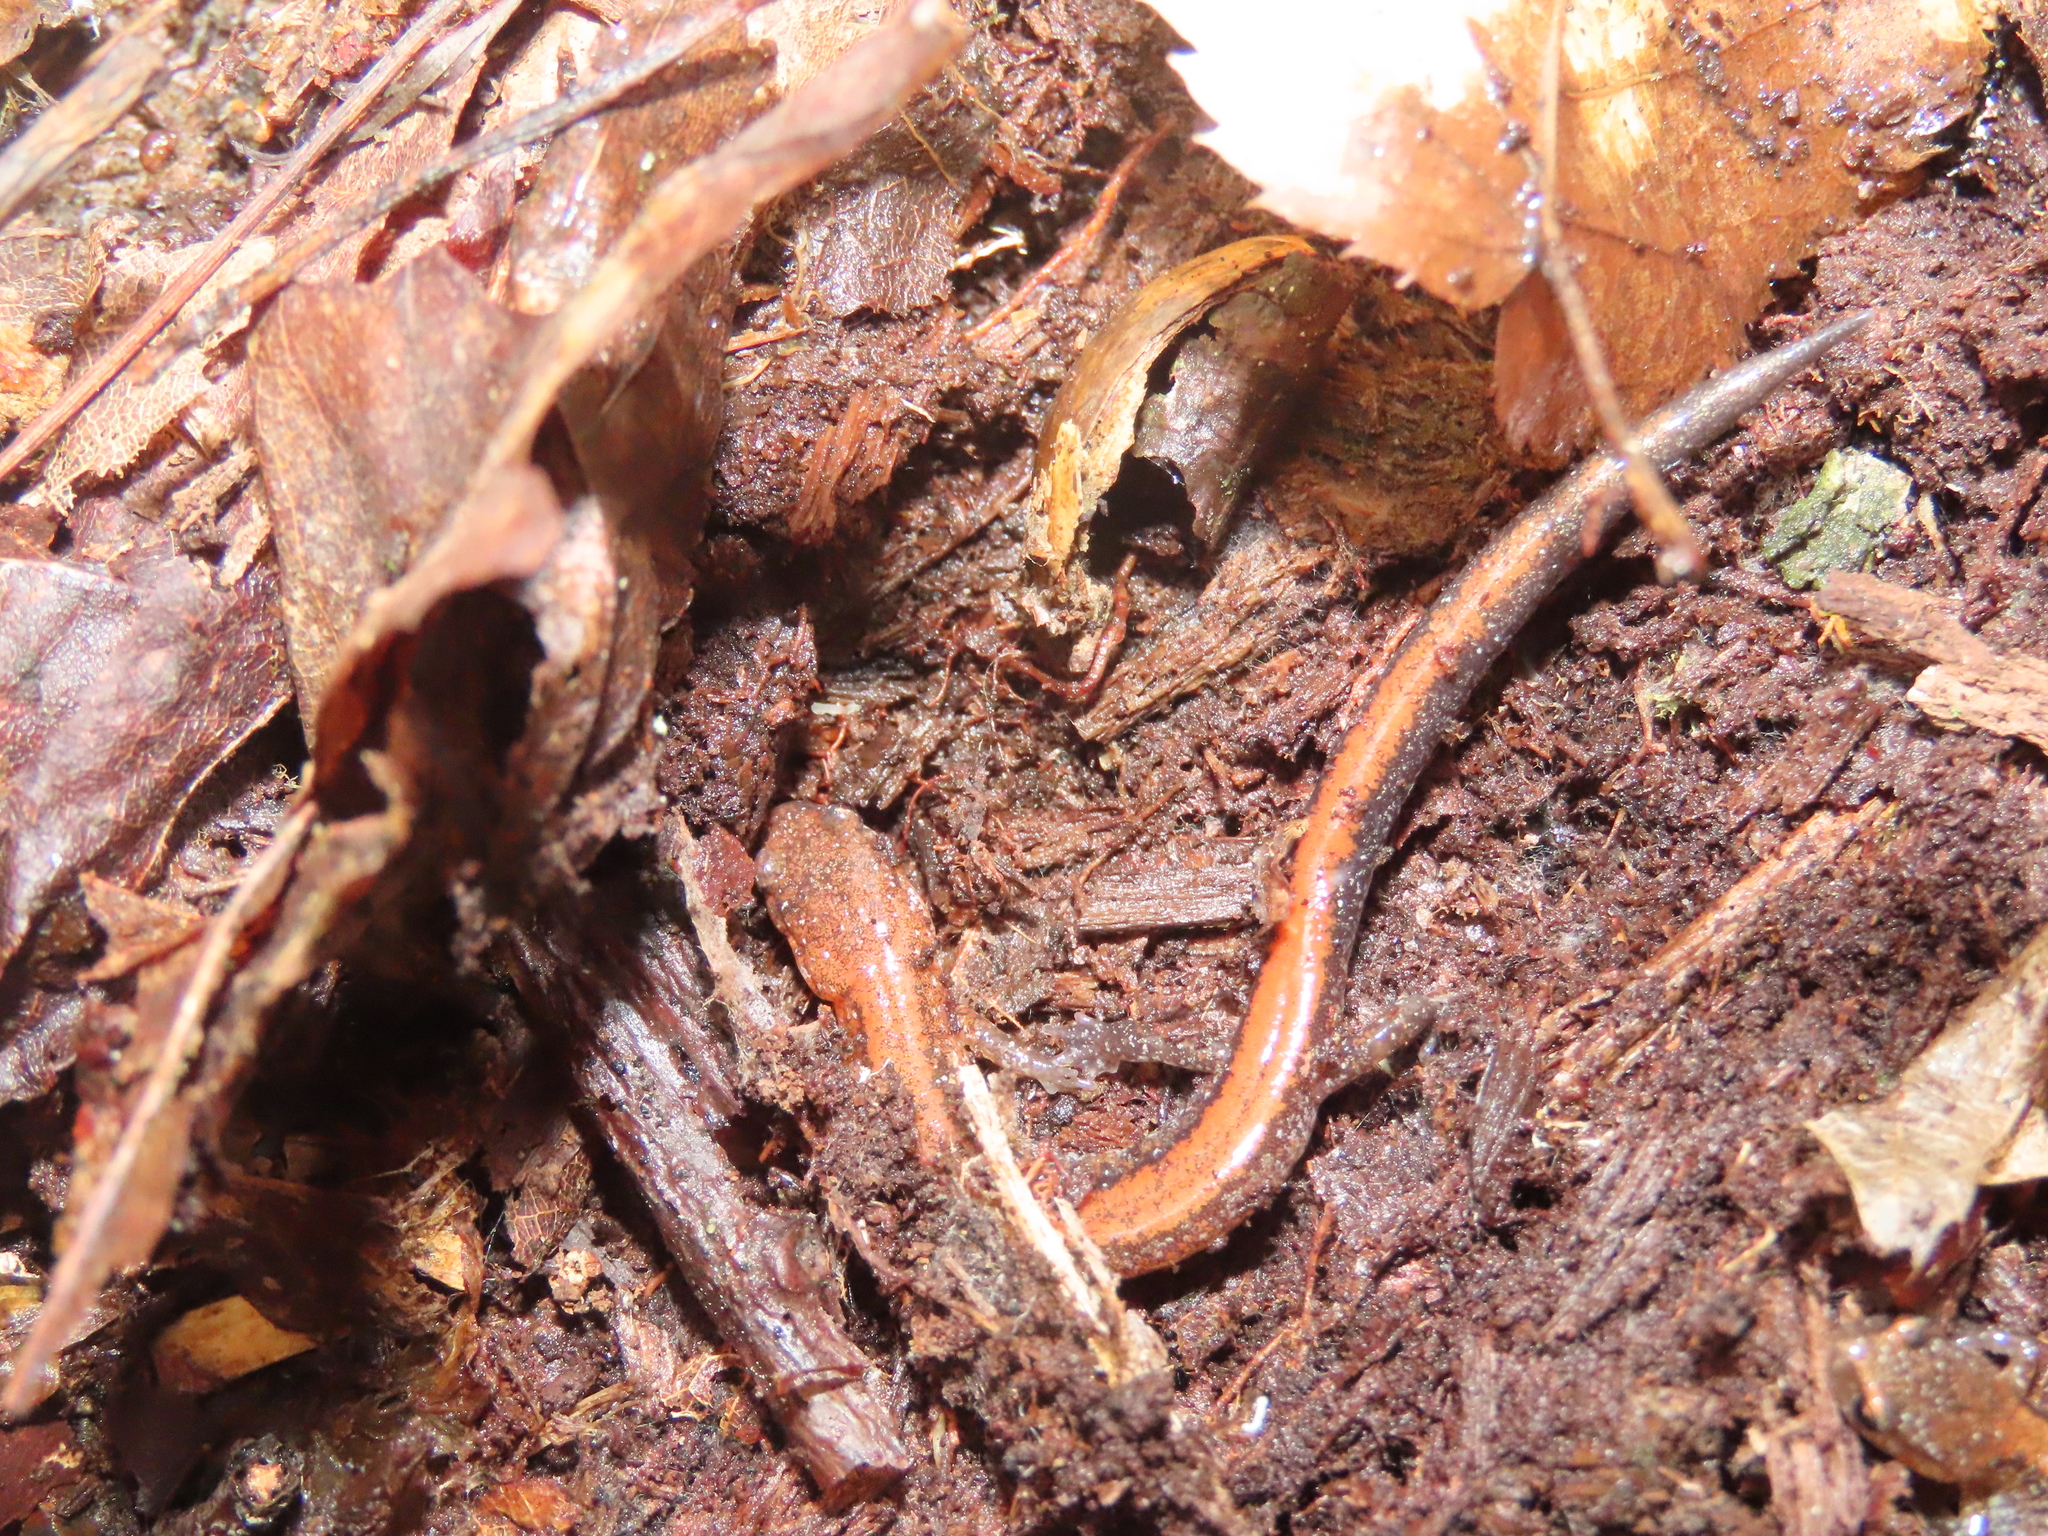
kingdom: Animalia
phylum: Chordata
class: Amphibia
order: Caudata
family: Plethodontidae
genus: Plethodon
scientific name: Plethodon cinereus
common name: Redback salamander
